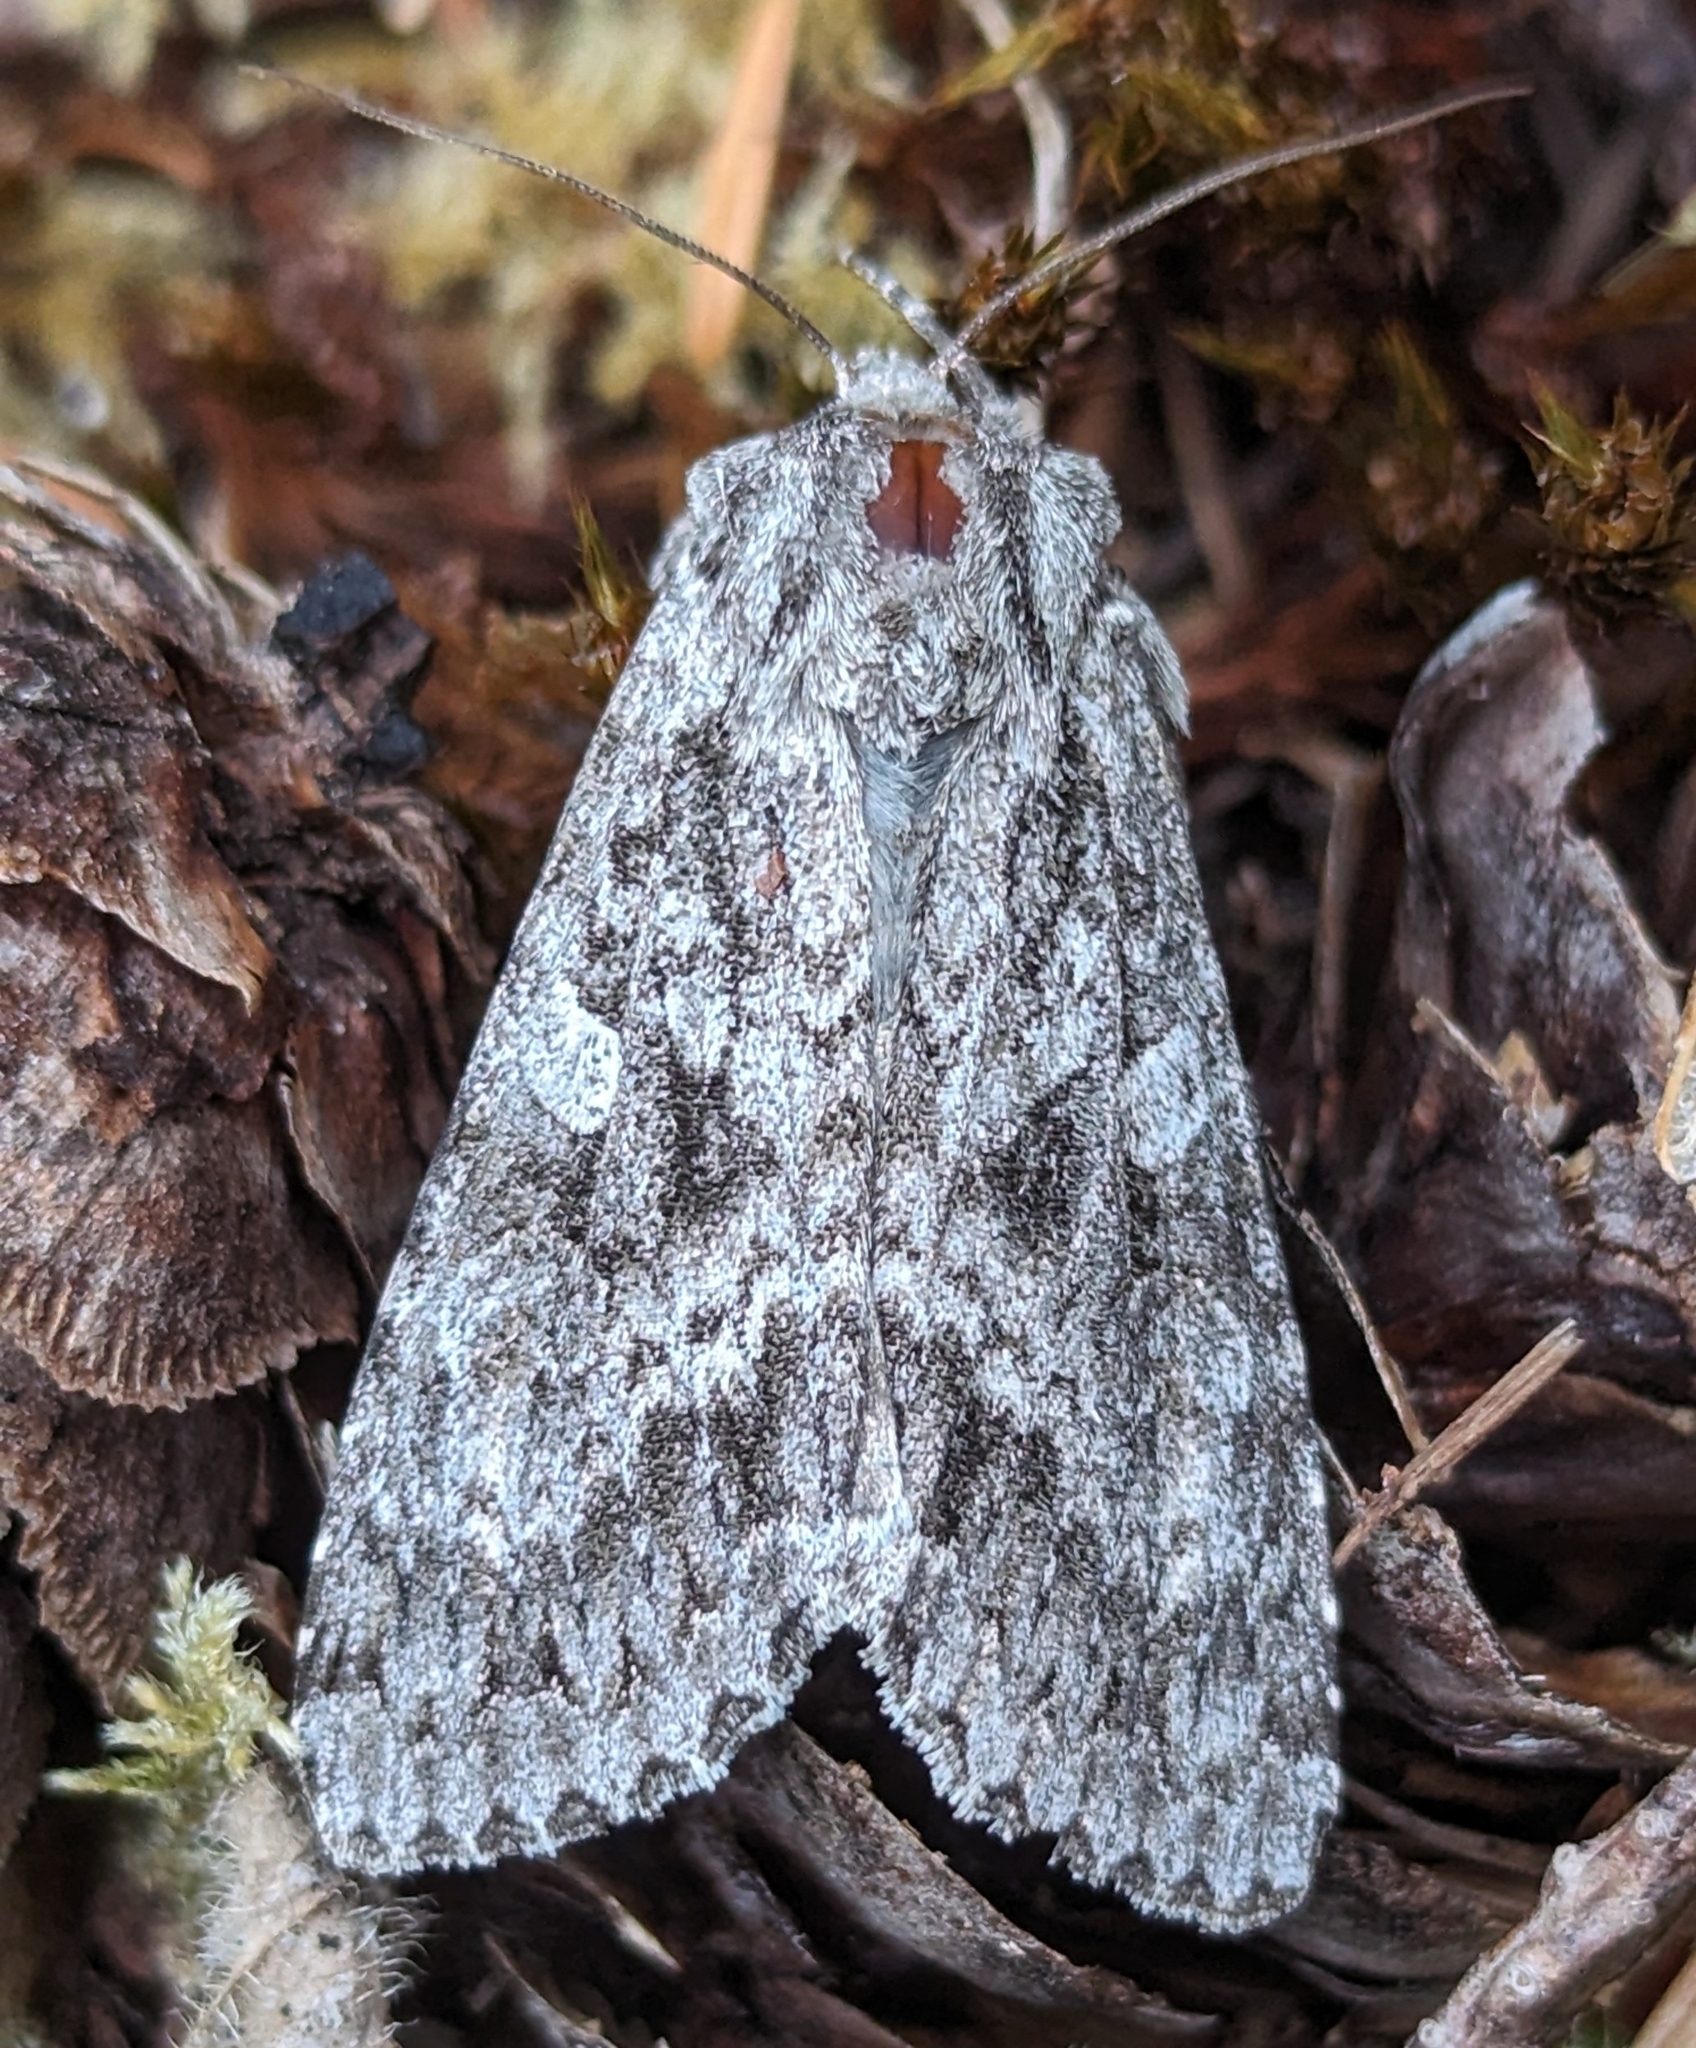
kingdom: Animalia
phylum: Arthropoda
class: Insecta
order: Lepidoptera
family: Noctuidae
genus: Eurois
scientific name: Eurois occulta
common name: Great brocade
